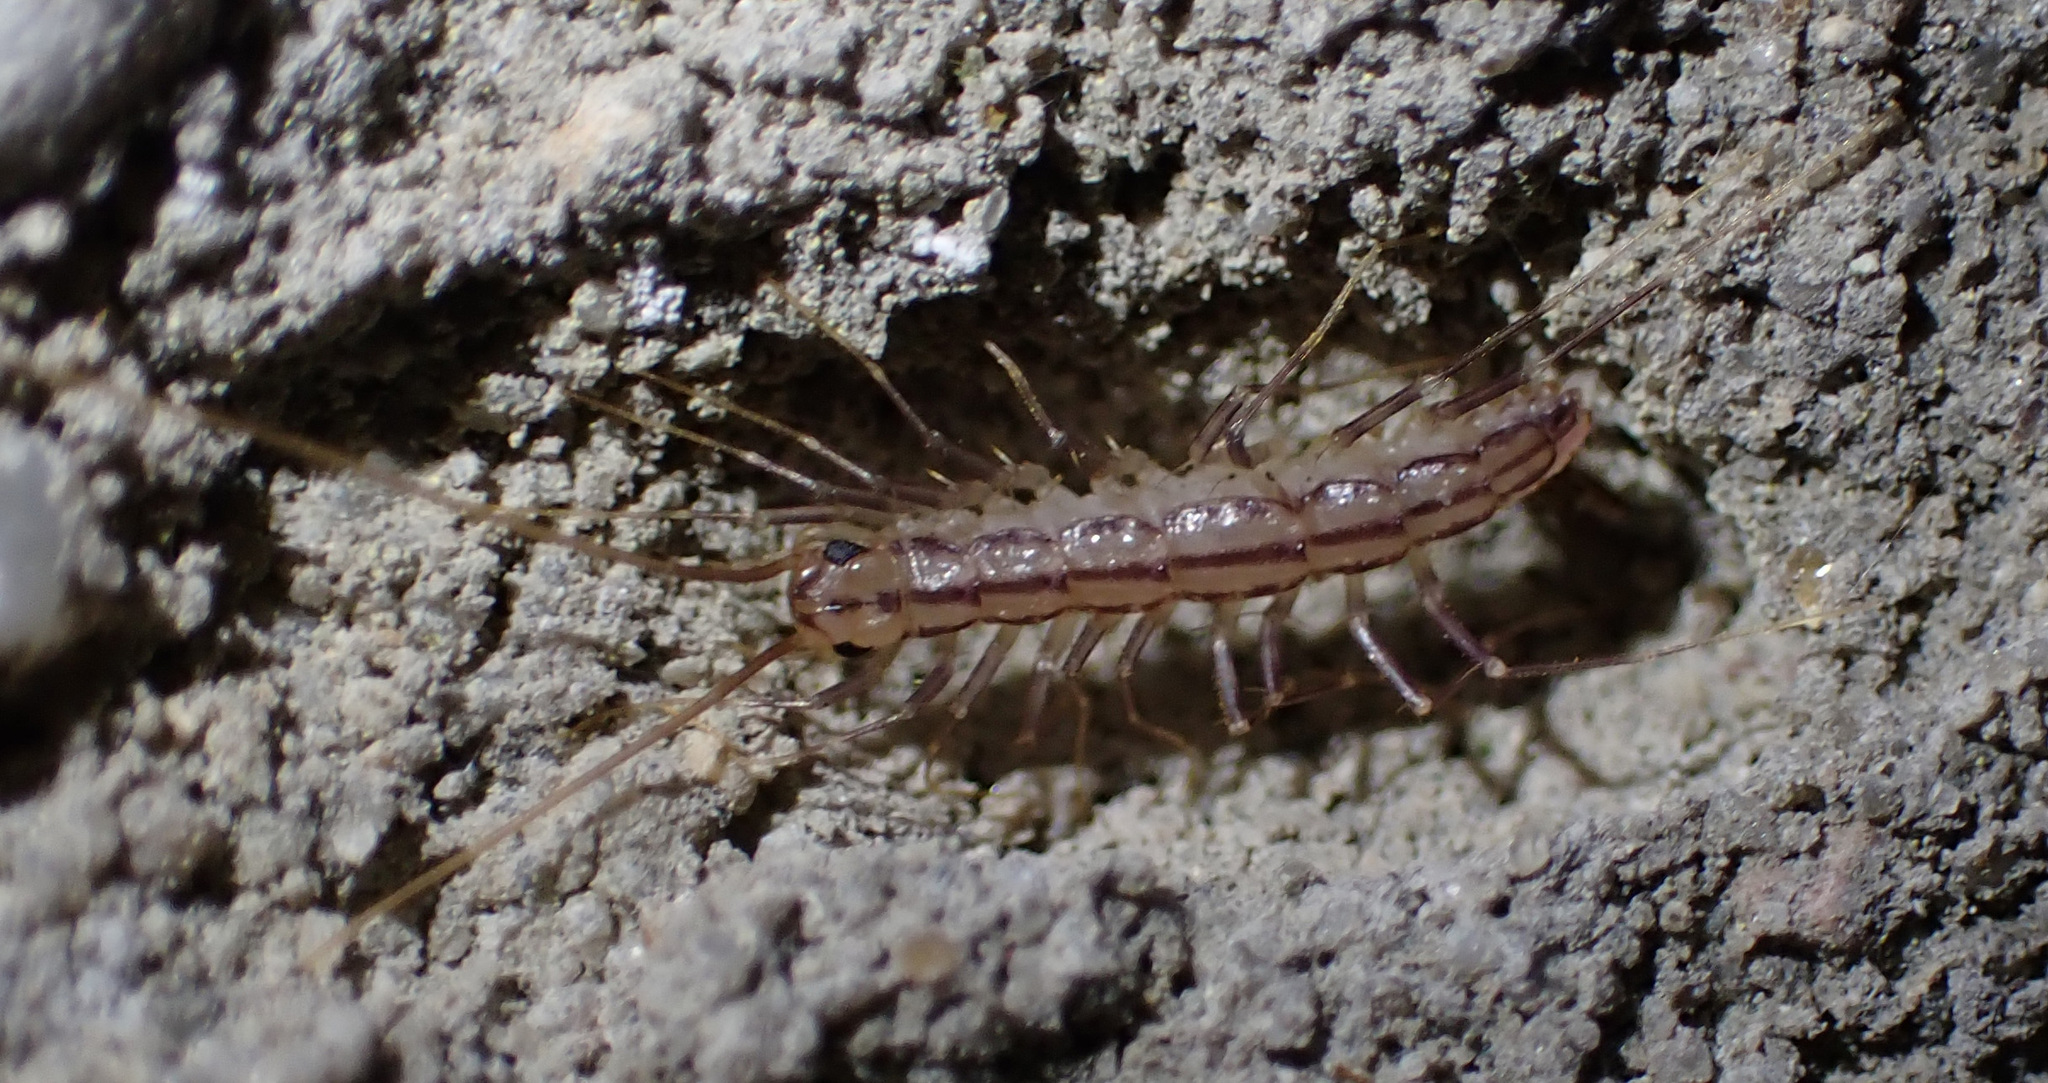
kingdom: Animalia
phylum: Arthropoda
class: Chilopoda
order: Scutigeromorpha
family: Scutigeridae
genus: Scutigera
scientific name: Scutigera coleoptrata
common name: House centipede
